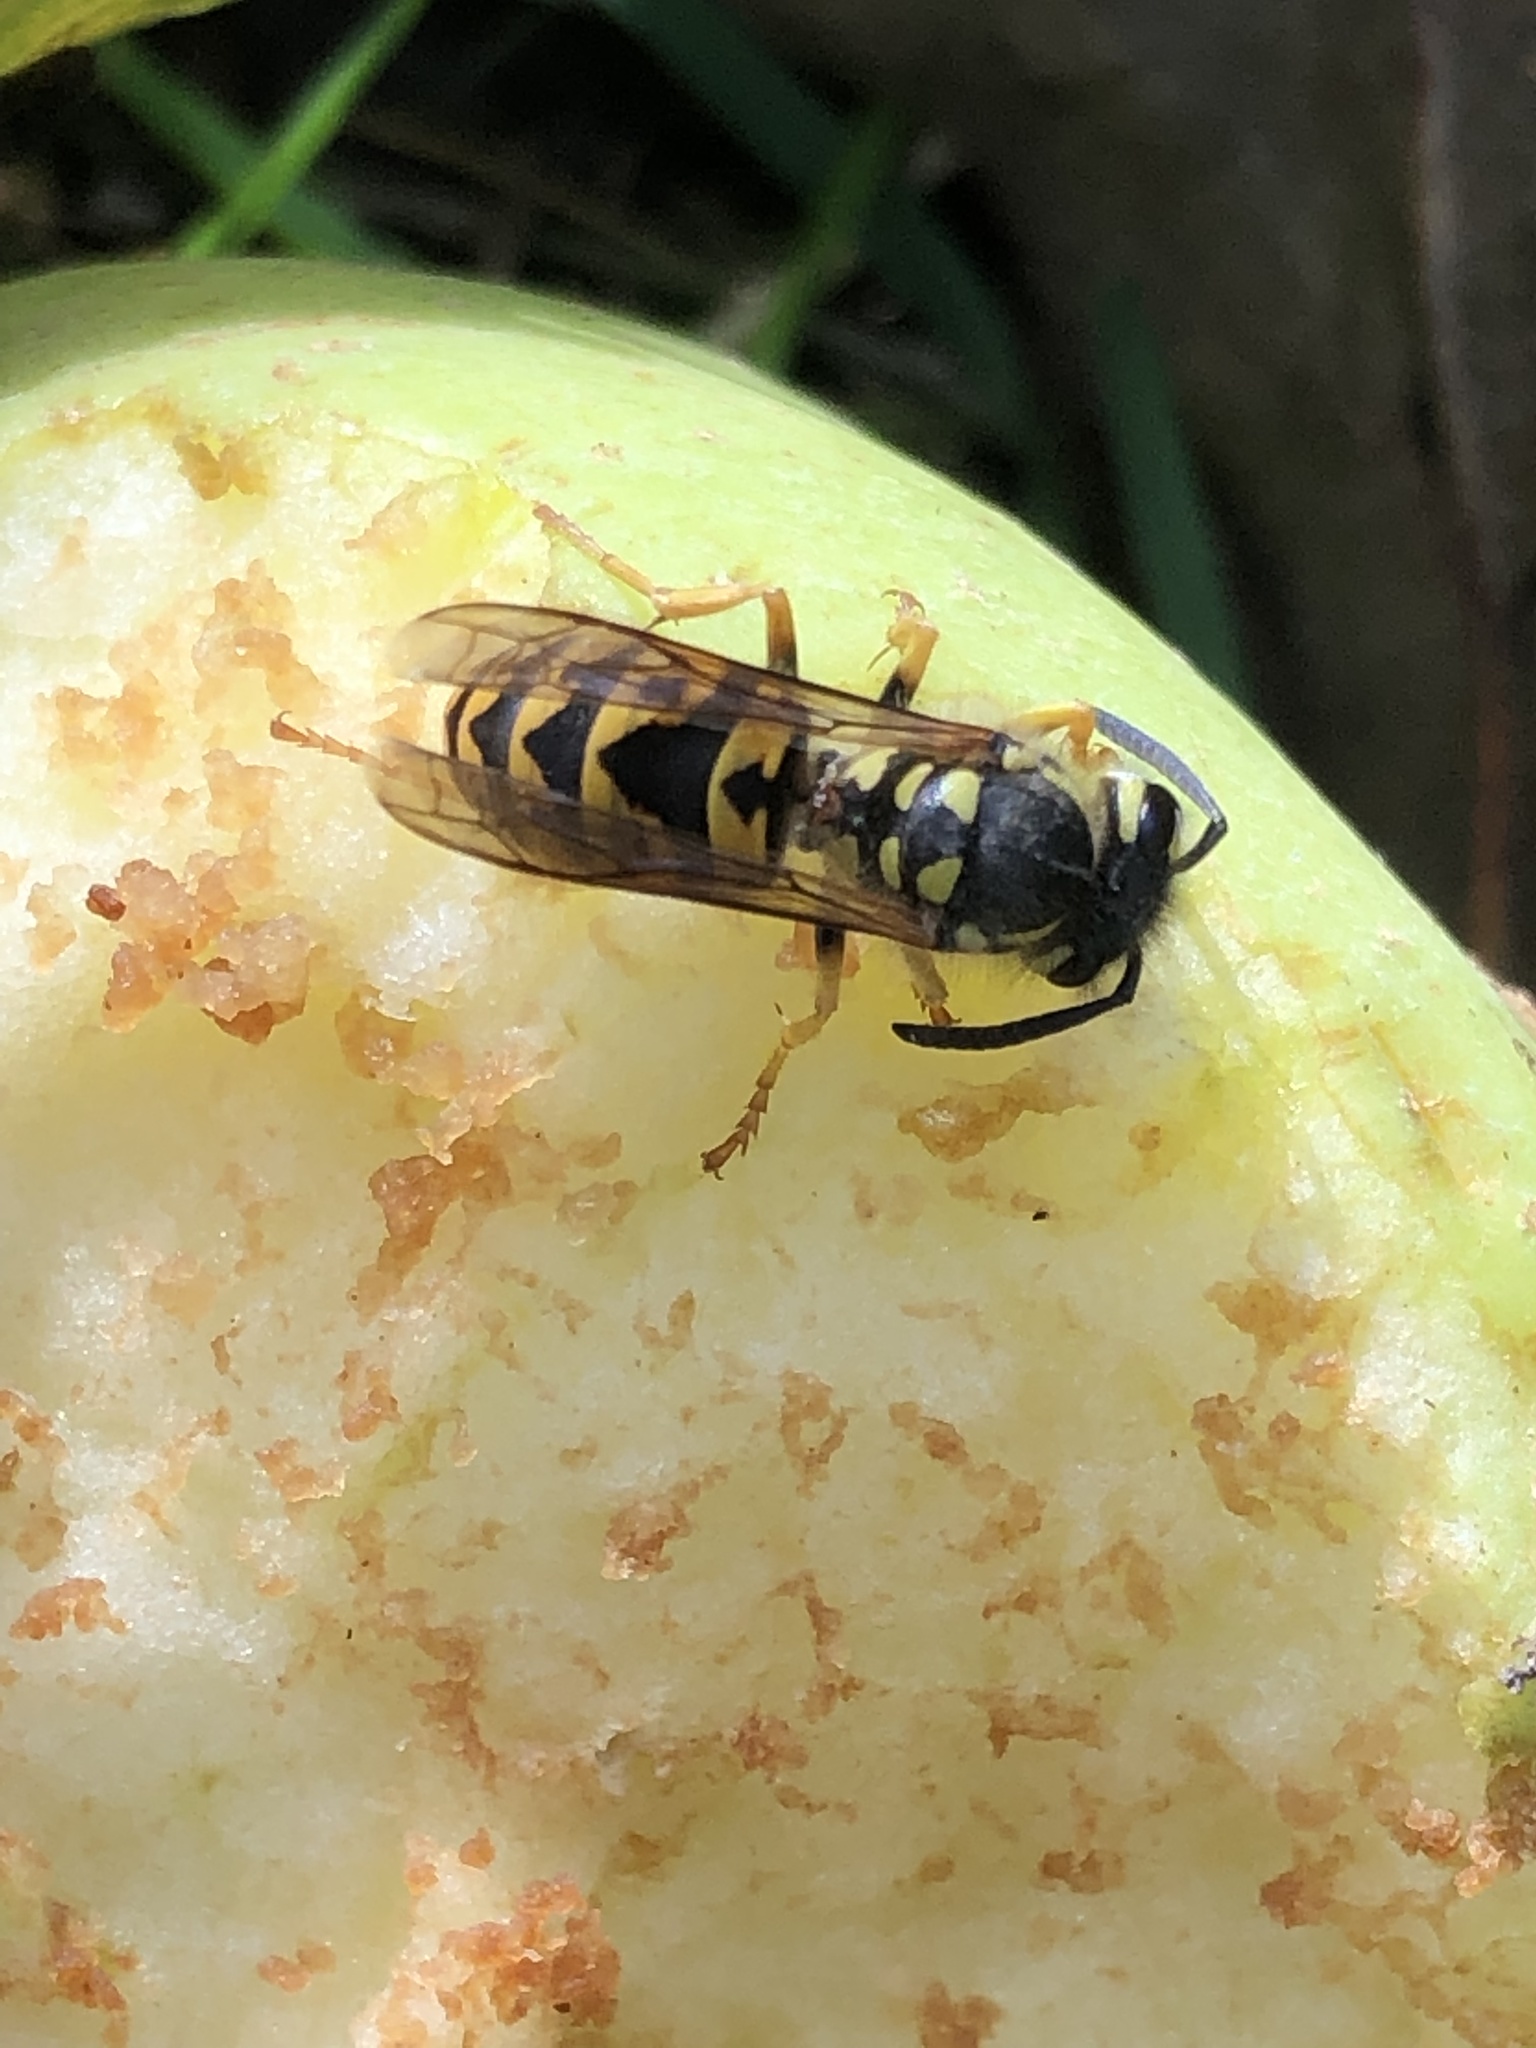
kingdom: Animalia
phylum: Arthropoda
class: Insecta
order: Hymenoptera
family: Vespidae
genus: Vespula
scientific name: Vespula germanica
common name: German wasp
